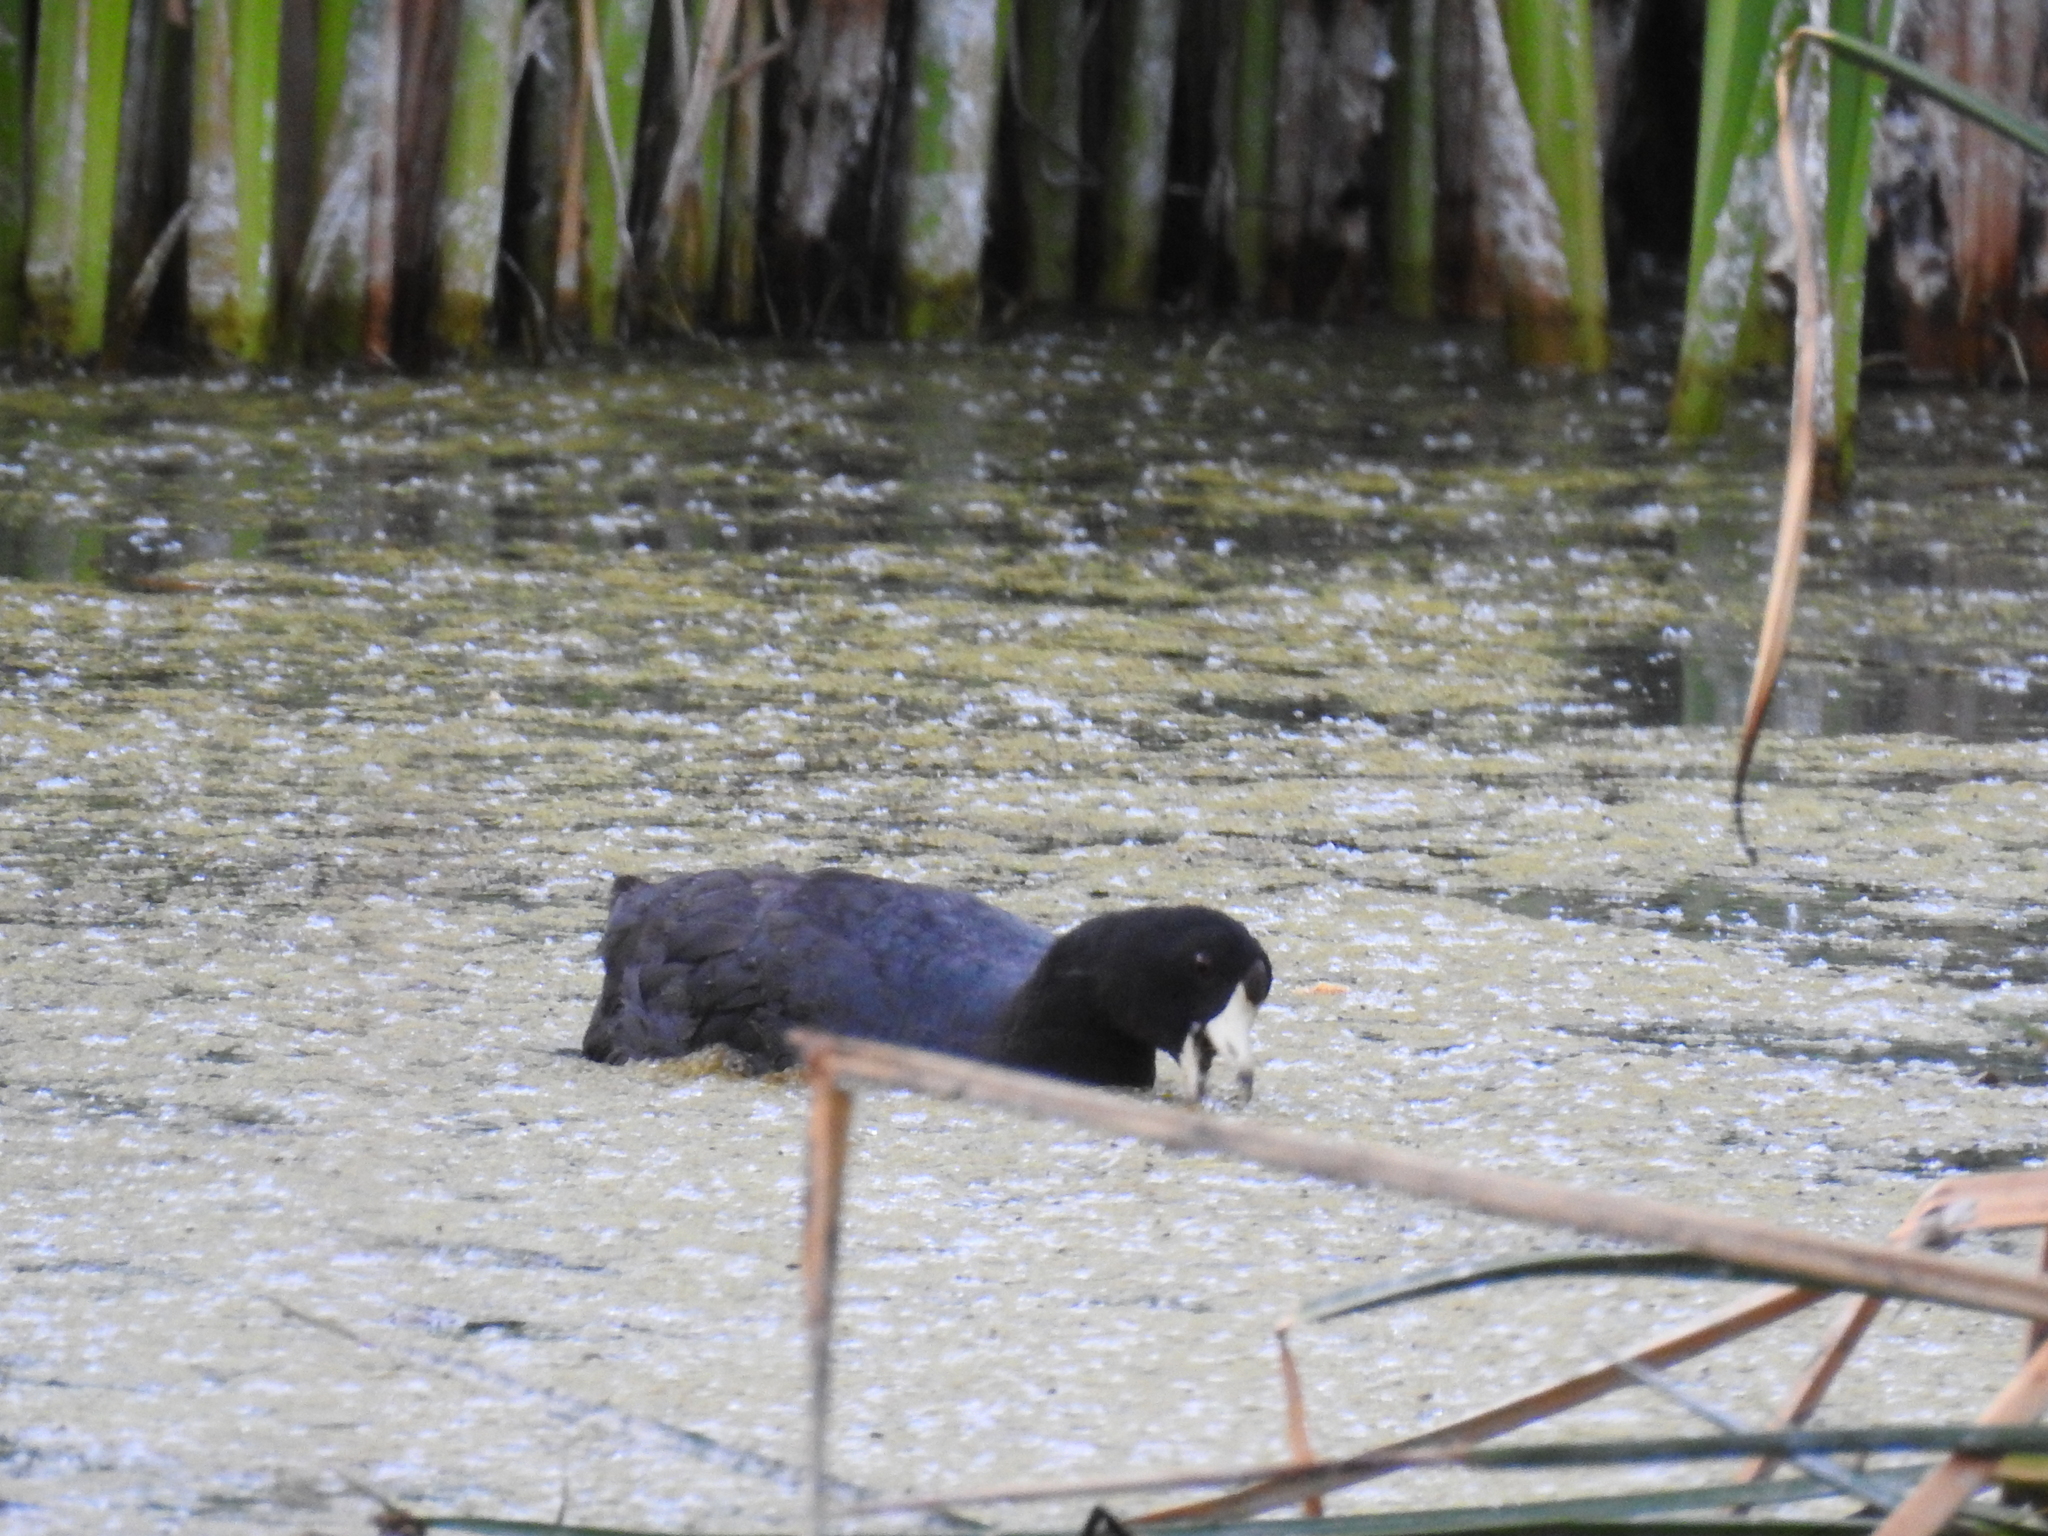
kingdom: Animalia
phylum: Chordata
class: Aves
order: Gruiformes
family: Rallidae
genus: Fulica
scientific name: Fulica americana
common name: American coot
